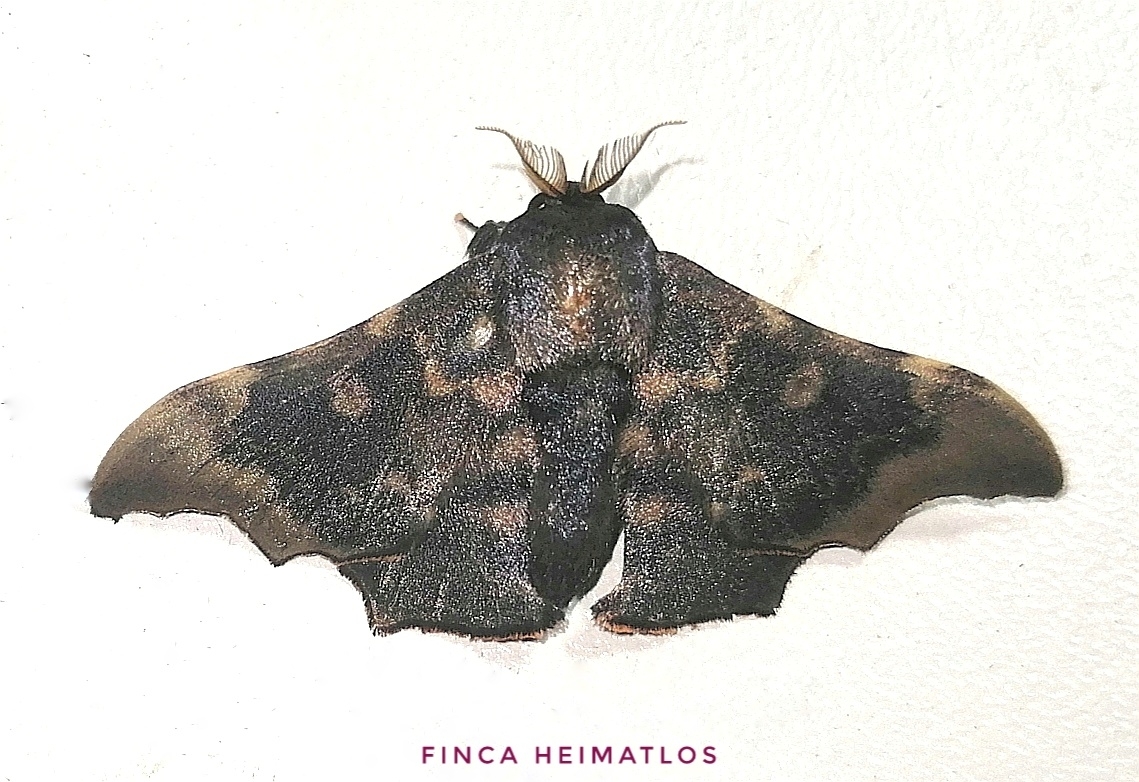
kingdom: Animalia
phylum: Arthropoda
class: Insecta
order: Lepidoptera
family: Mimallonidae
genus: Lacosoma
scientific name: Lacosoma briasia
